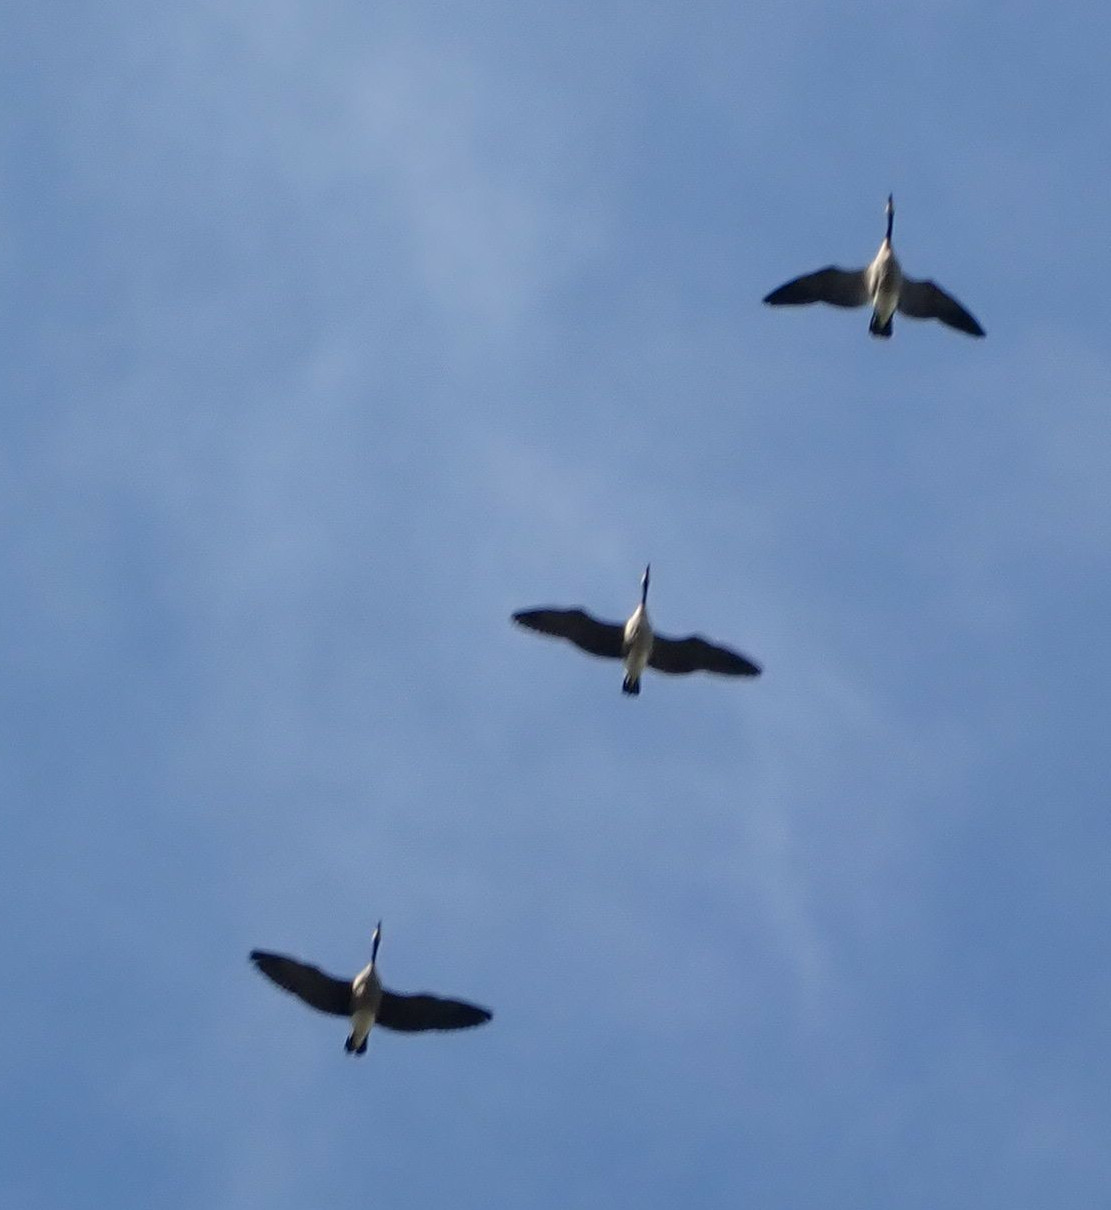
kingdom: Animalia
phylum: Chordata
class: Aves
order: Anseriformes
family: Anatidae
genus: Branta
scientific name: Branta canadensis
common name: Canada goose
